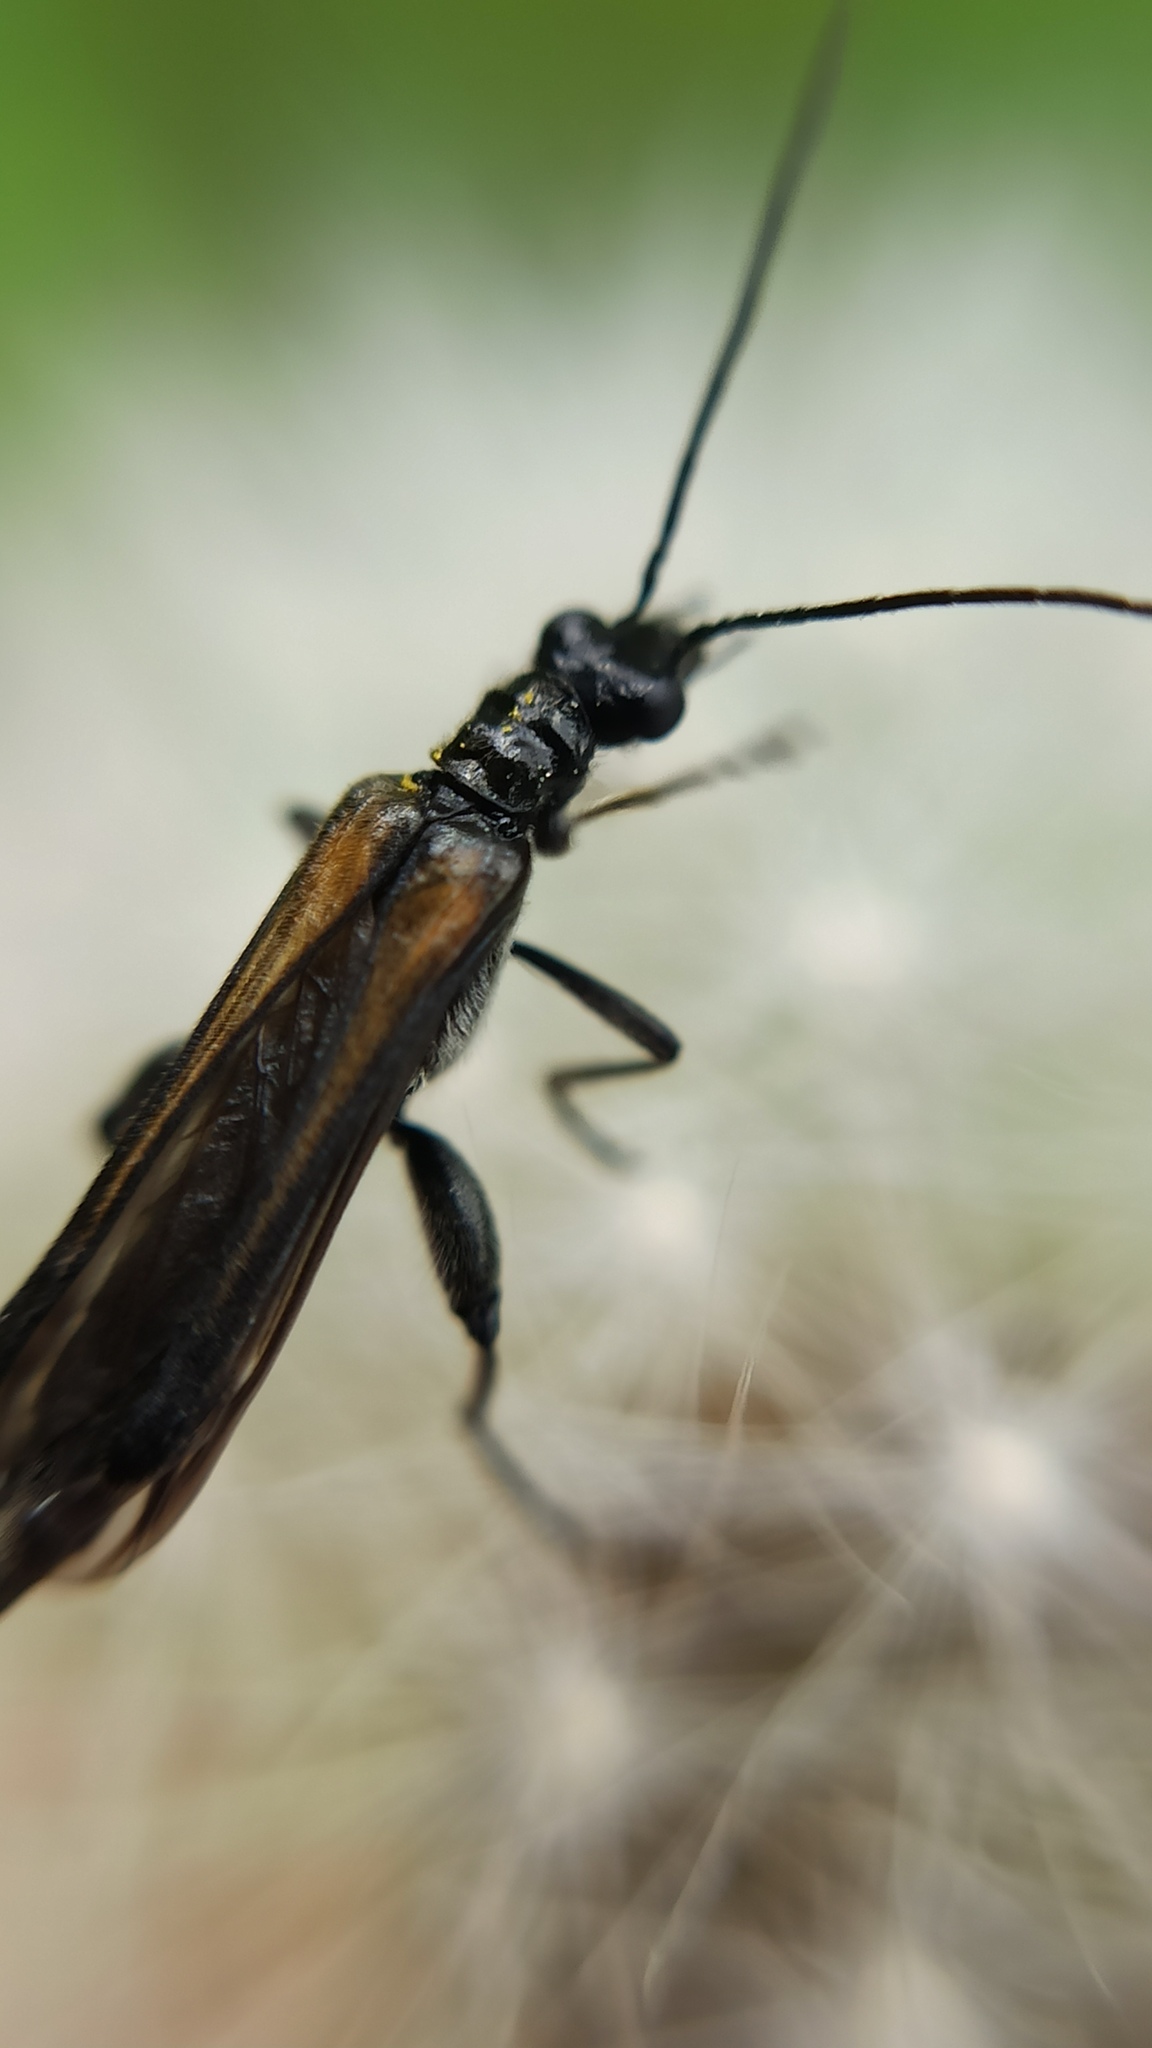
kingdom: Animalia
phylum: Arthropoda
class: Insecta
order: Coleoptera
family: Oedemeridae
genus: Oedemera
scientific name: Oedemera pthysica
